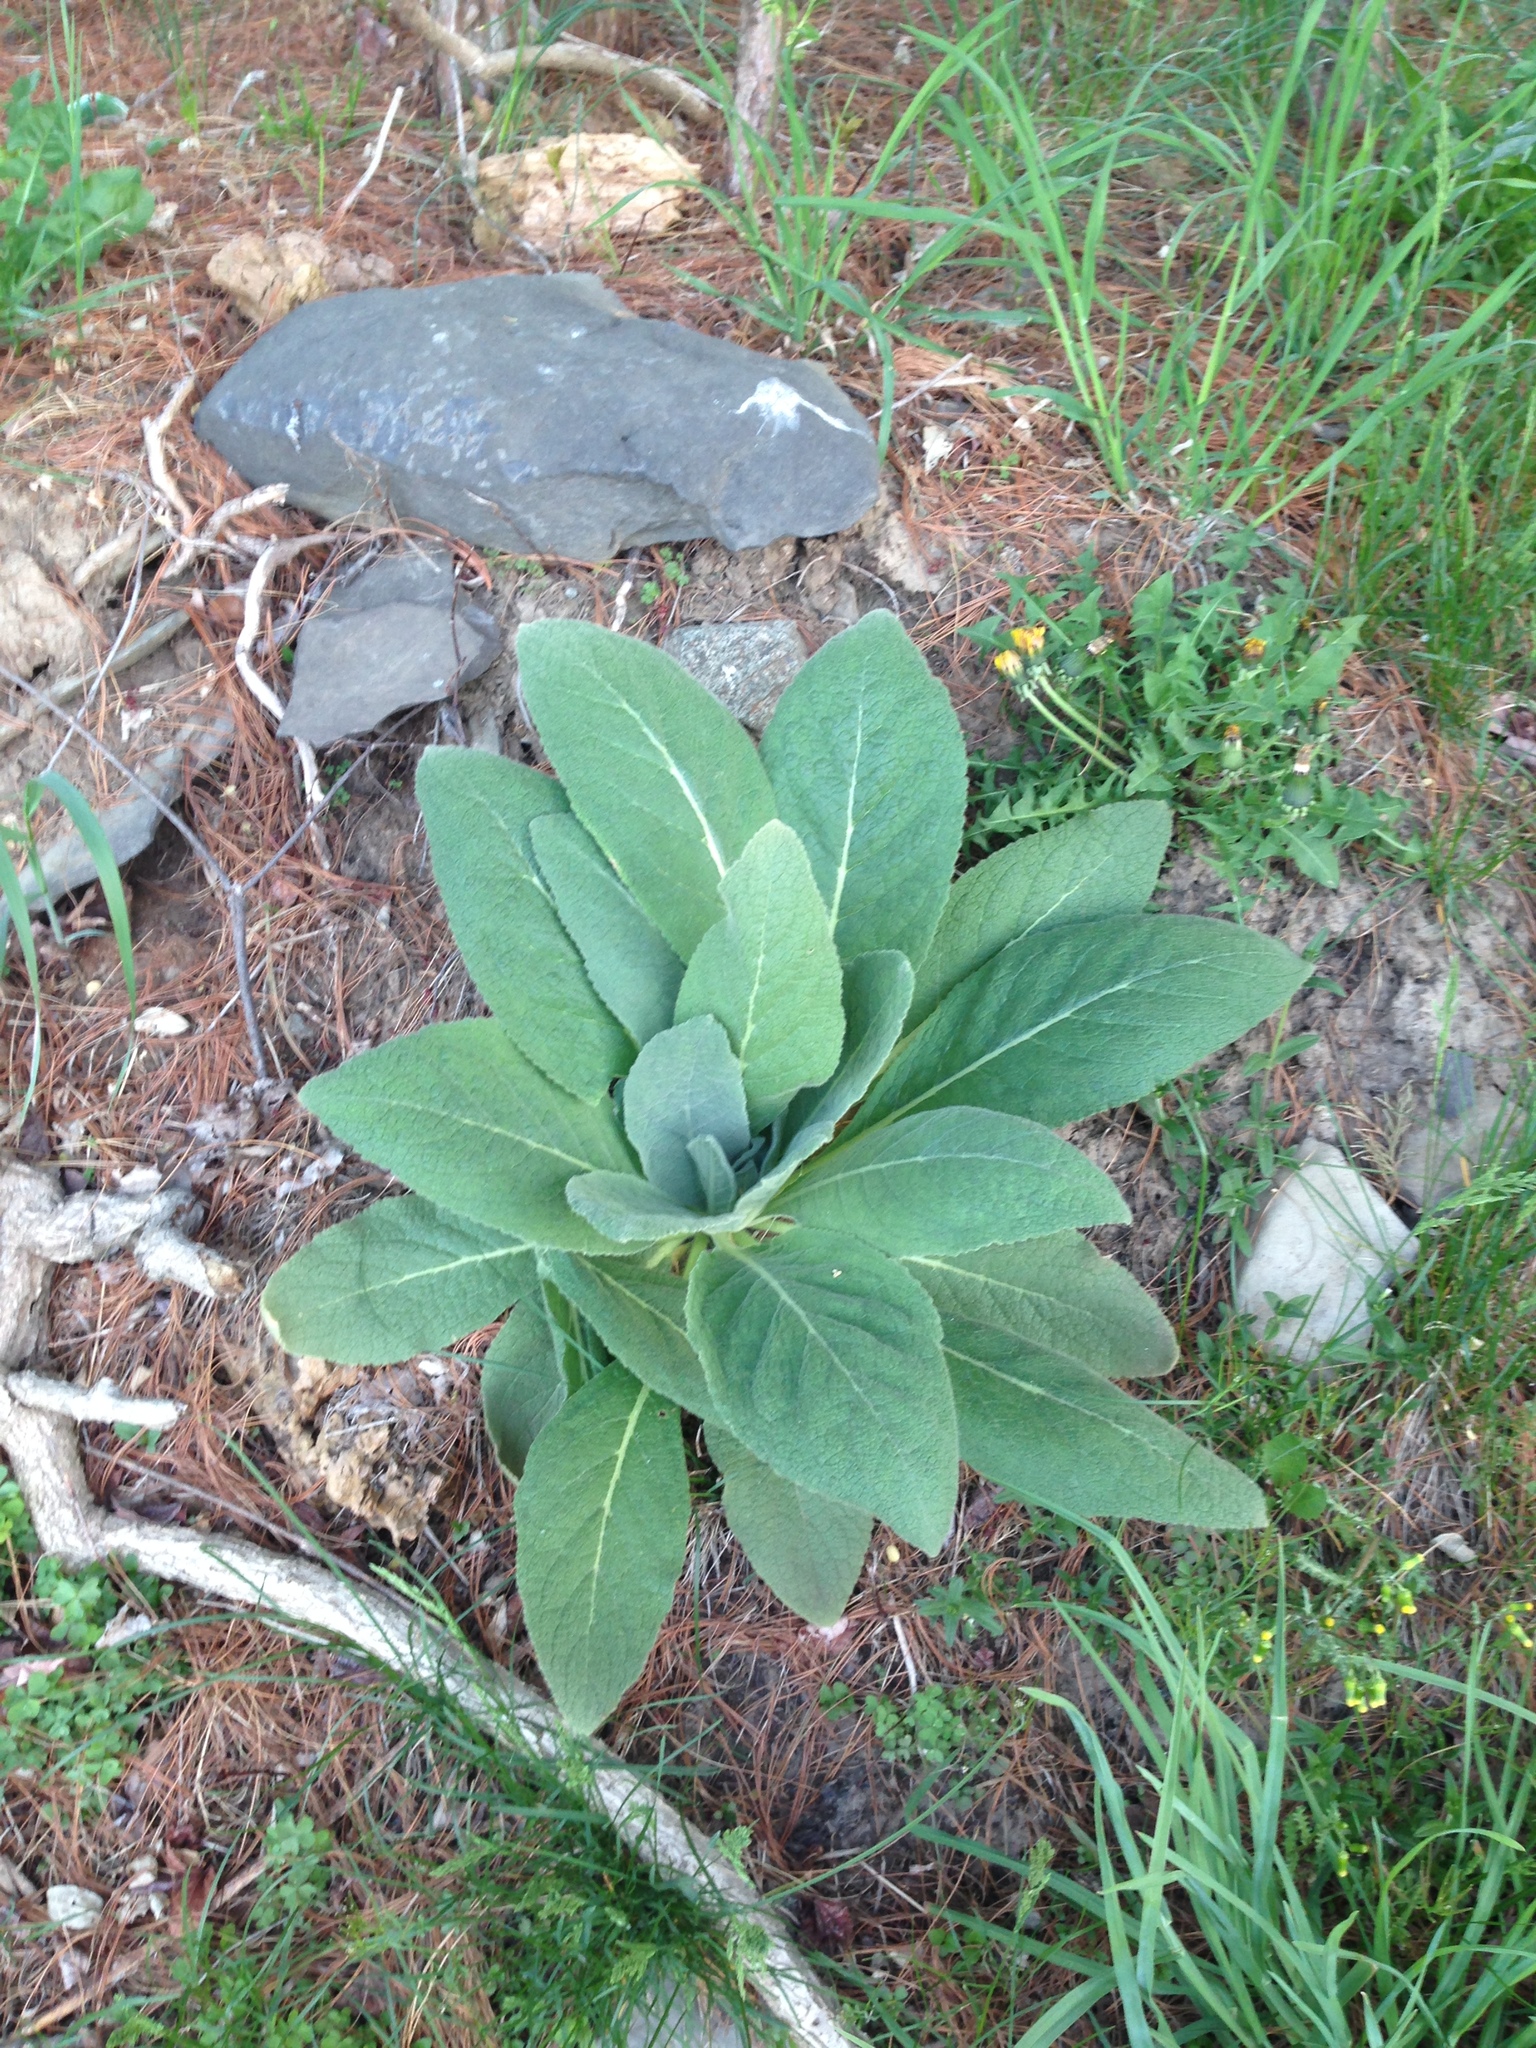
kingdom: Plantae
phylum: Tracheophyta
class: Magnoliopsida
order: Lamiales
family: Scrophulariaceae
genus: Verbascum
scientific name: Verbascum thapsus
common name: Common mullein
